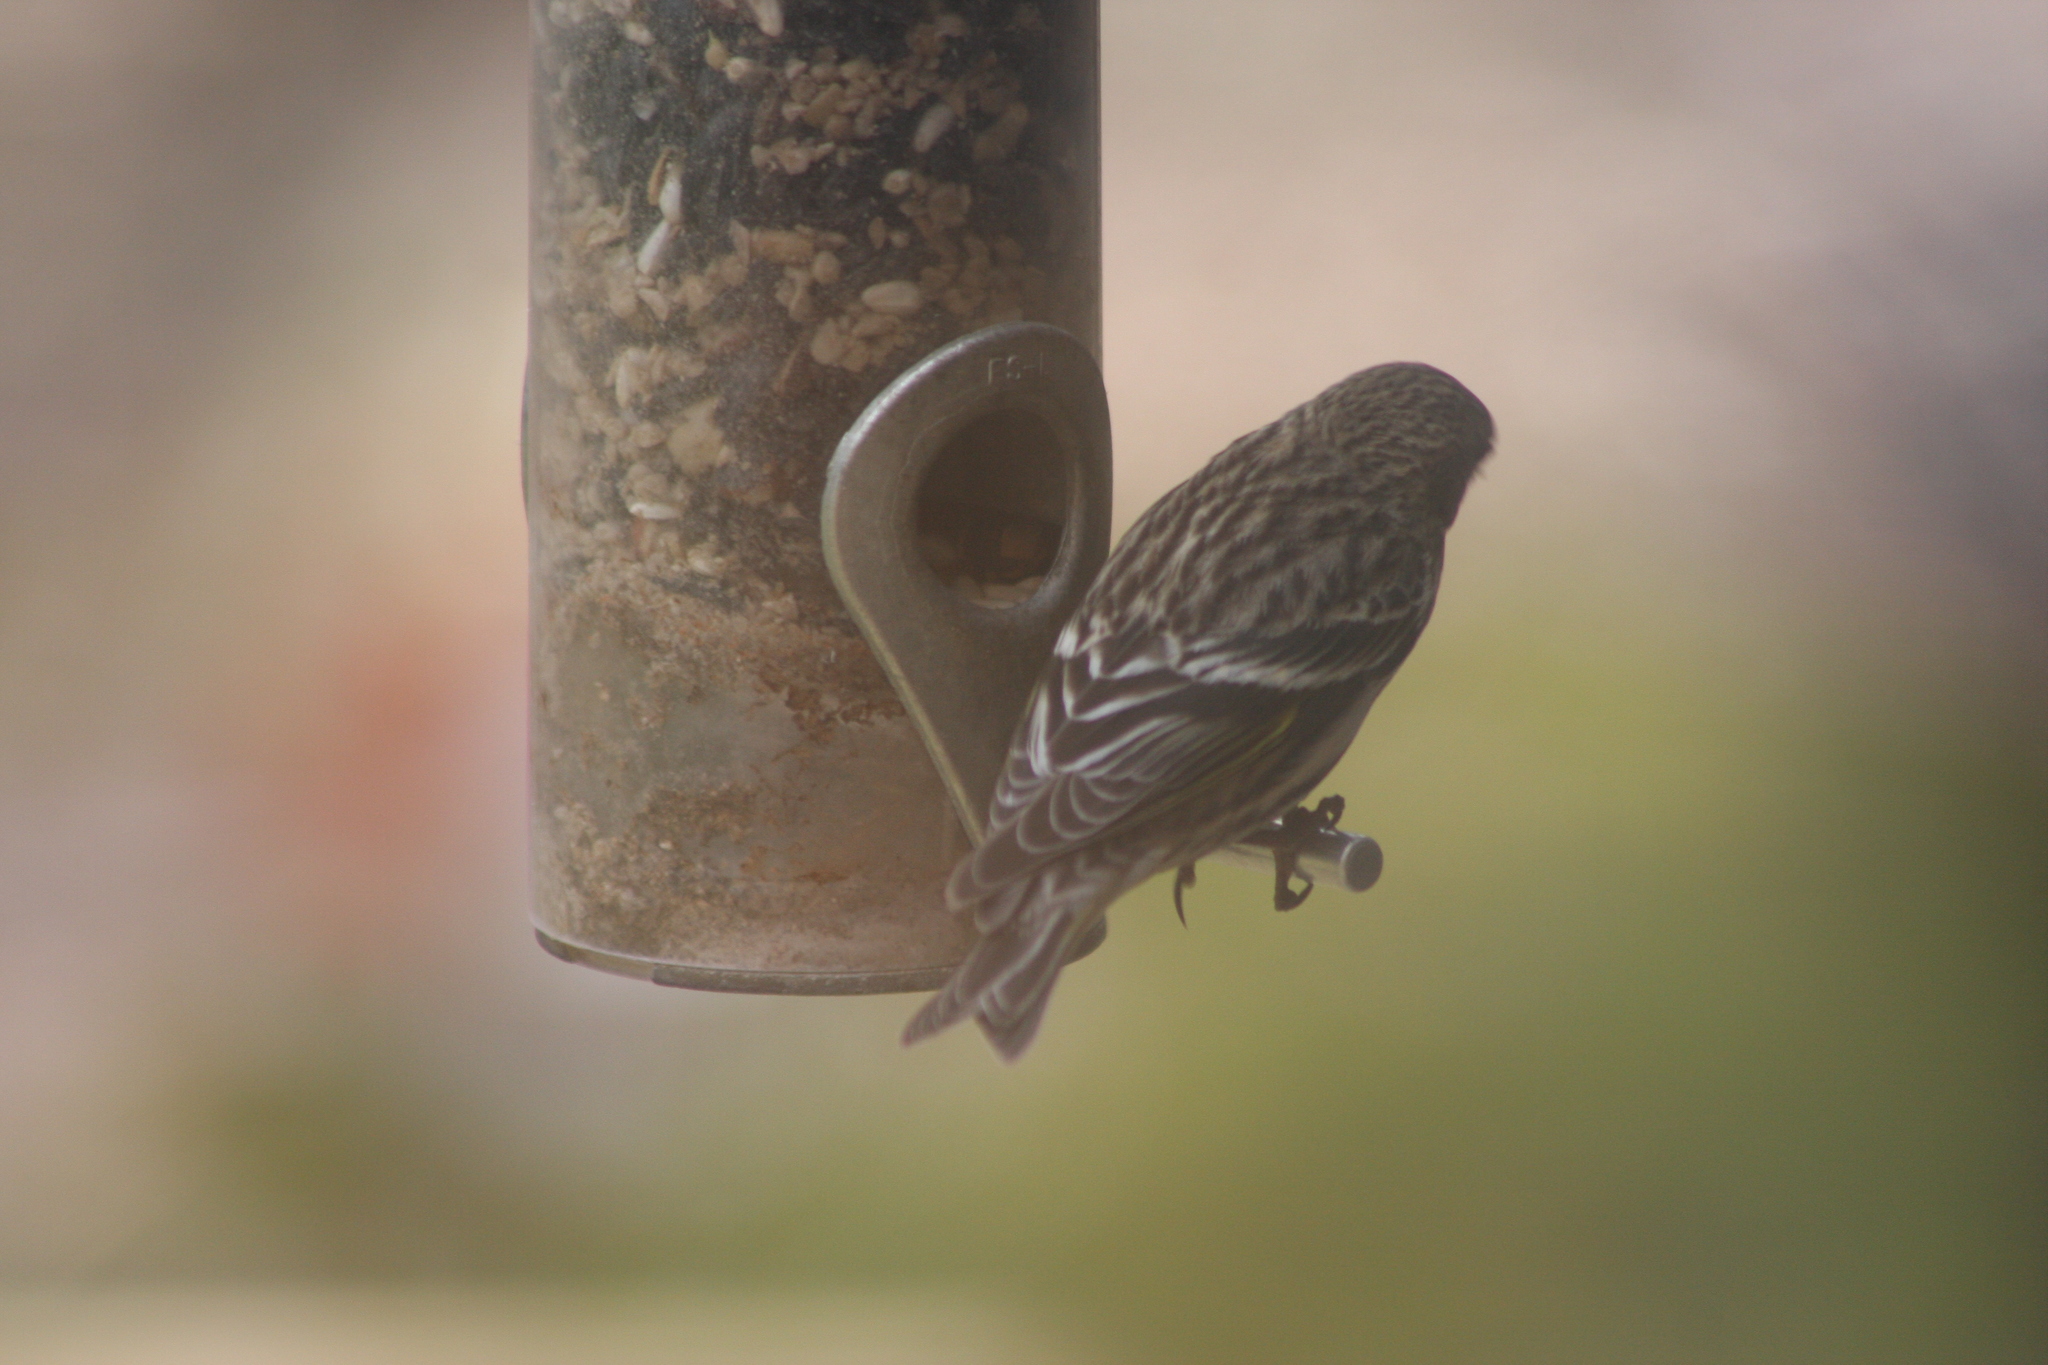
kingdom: Animalia
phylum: Chordata
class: Aves
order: Passeriformes
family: Fringillidae
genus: Spinus
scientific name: Spinus pinus
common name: Pine siskin
